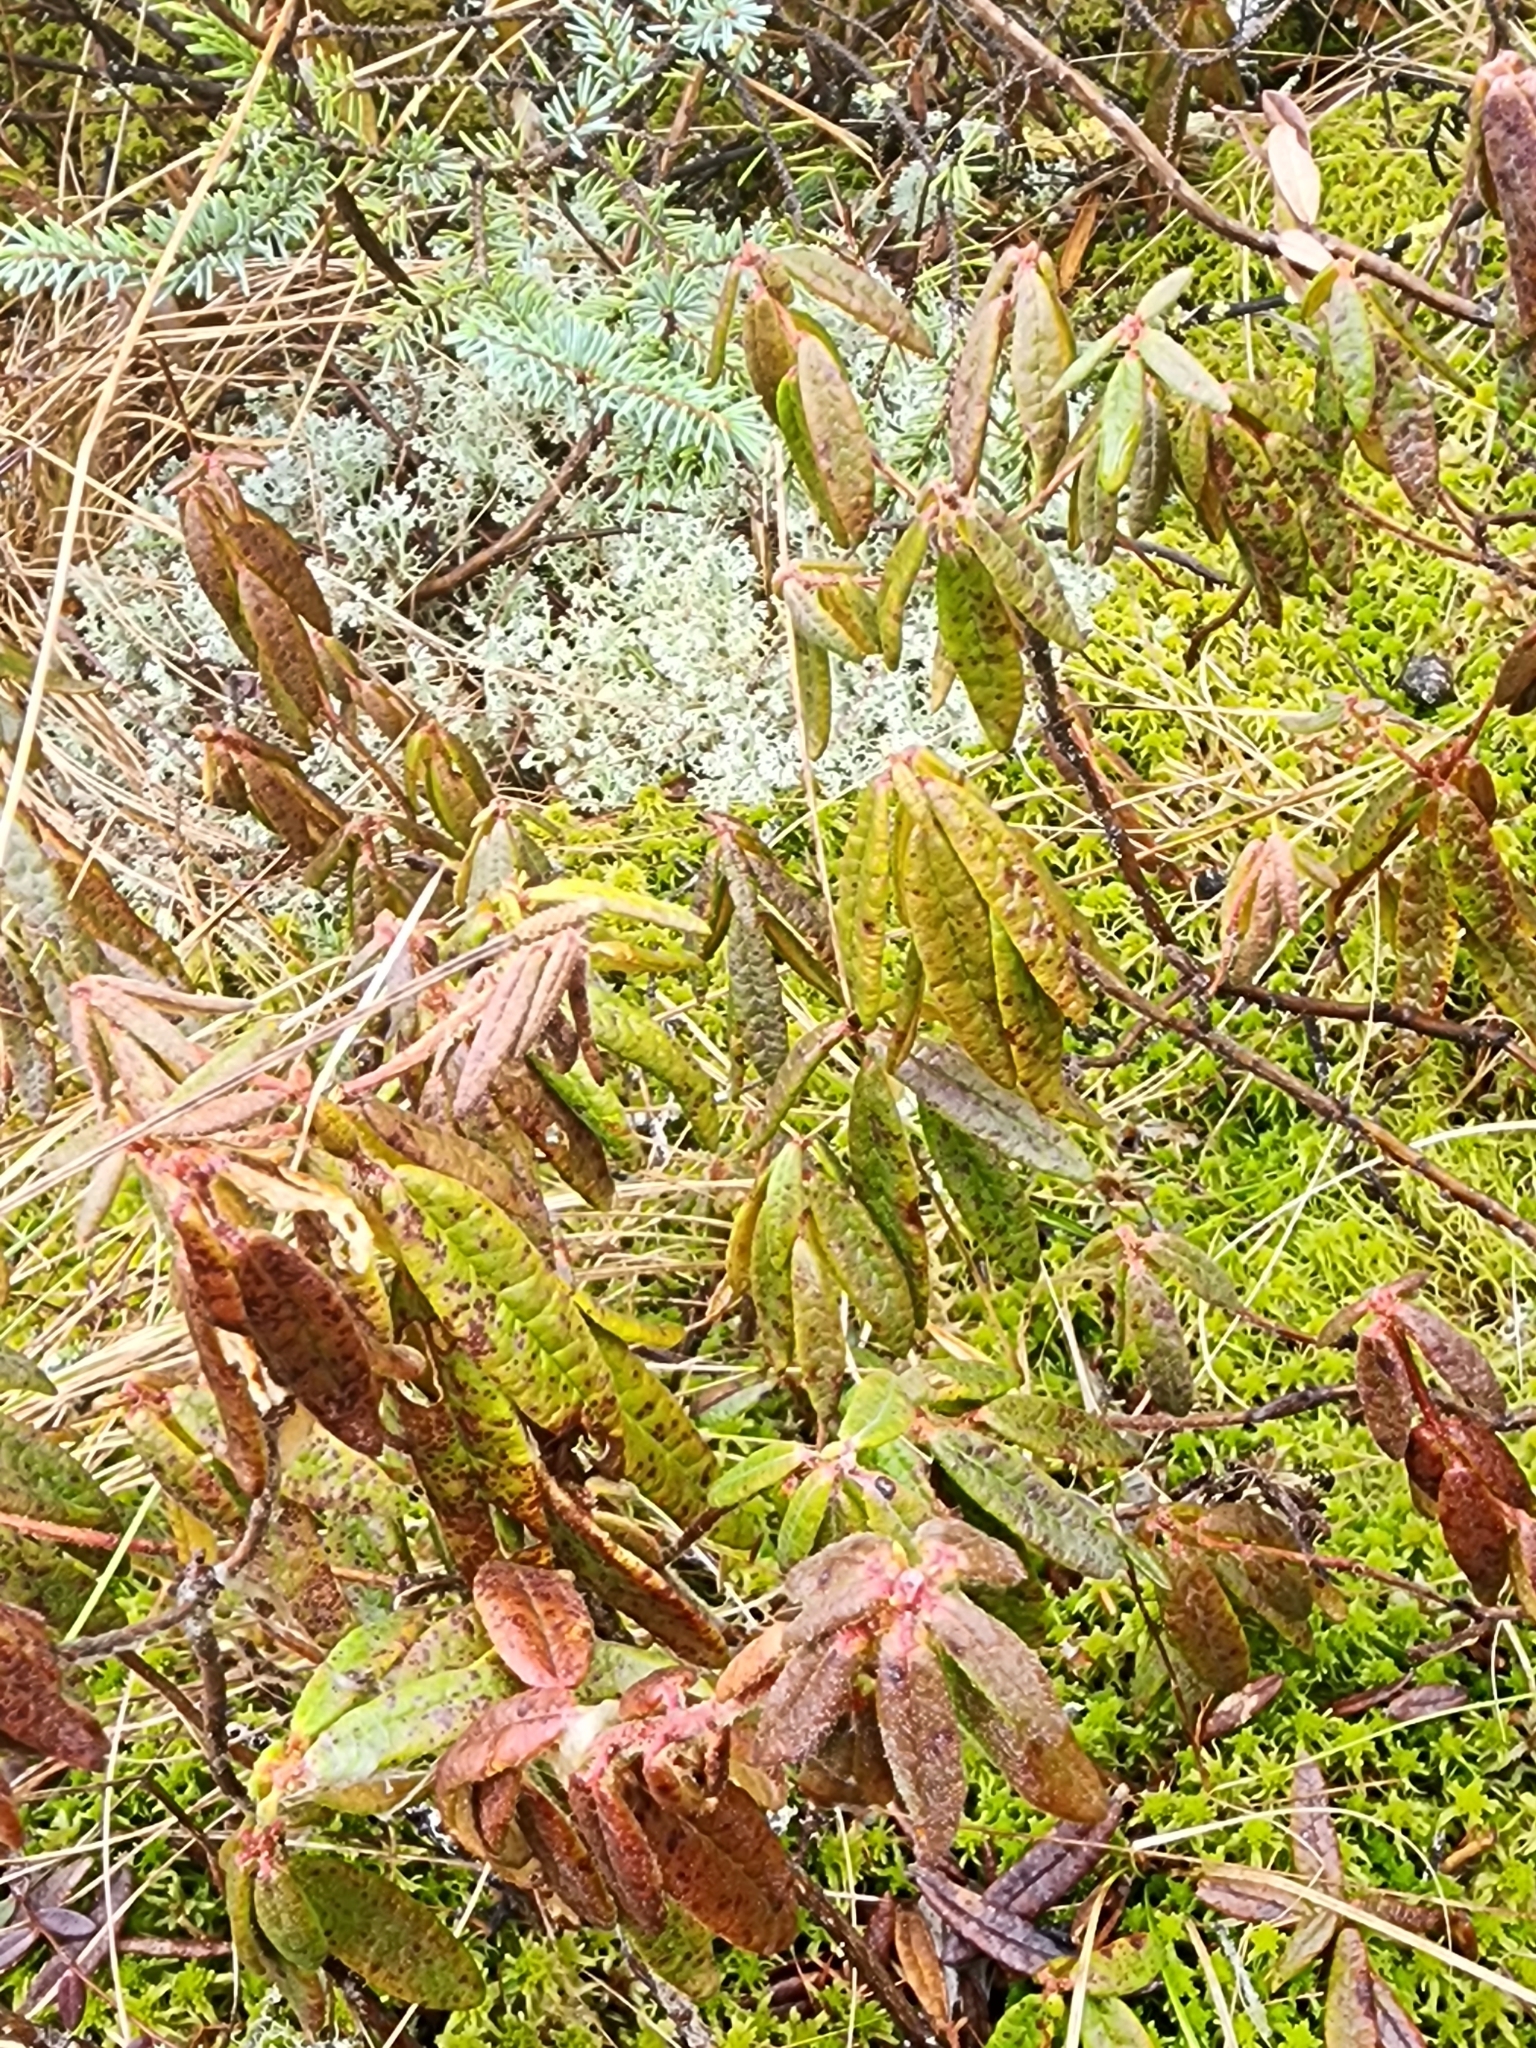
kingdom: Plantae
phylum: Tracheophyta
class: Magnoliopsida
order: Ericales
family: Ericaceae
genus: Rhododendron
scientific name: Rhododendron groenlandicum
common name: Bog labrador tea
